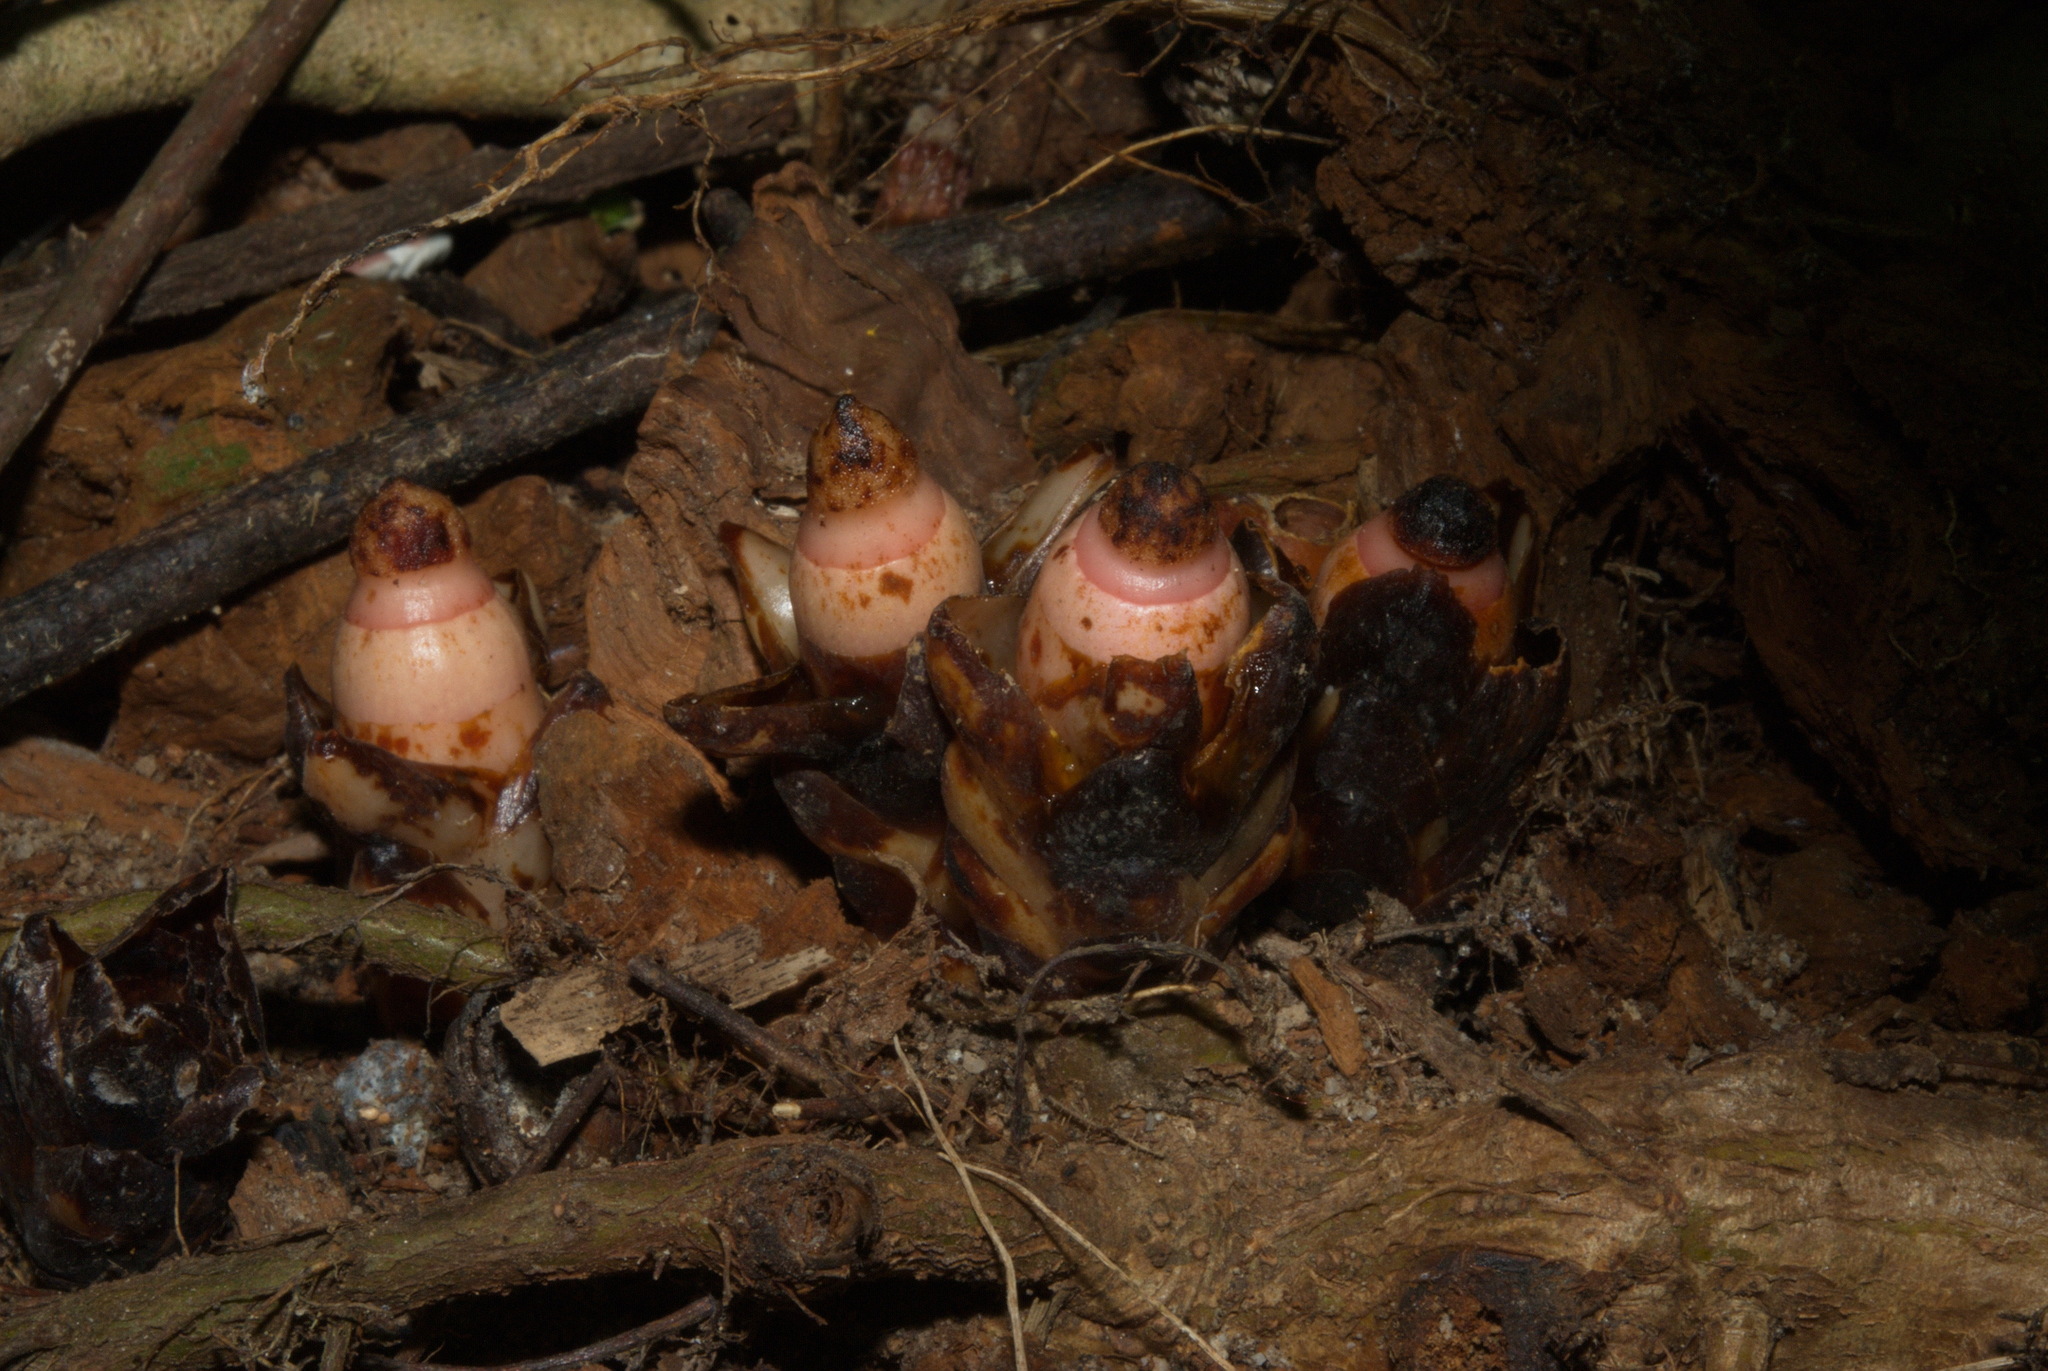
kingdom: Plantae
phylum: Tracheophyta
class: Magnoliopsida
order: Ericales
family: Mitrastemonaceae
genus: Mitrastemon
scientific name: Mitrastemon yamamotoi
